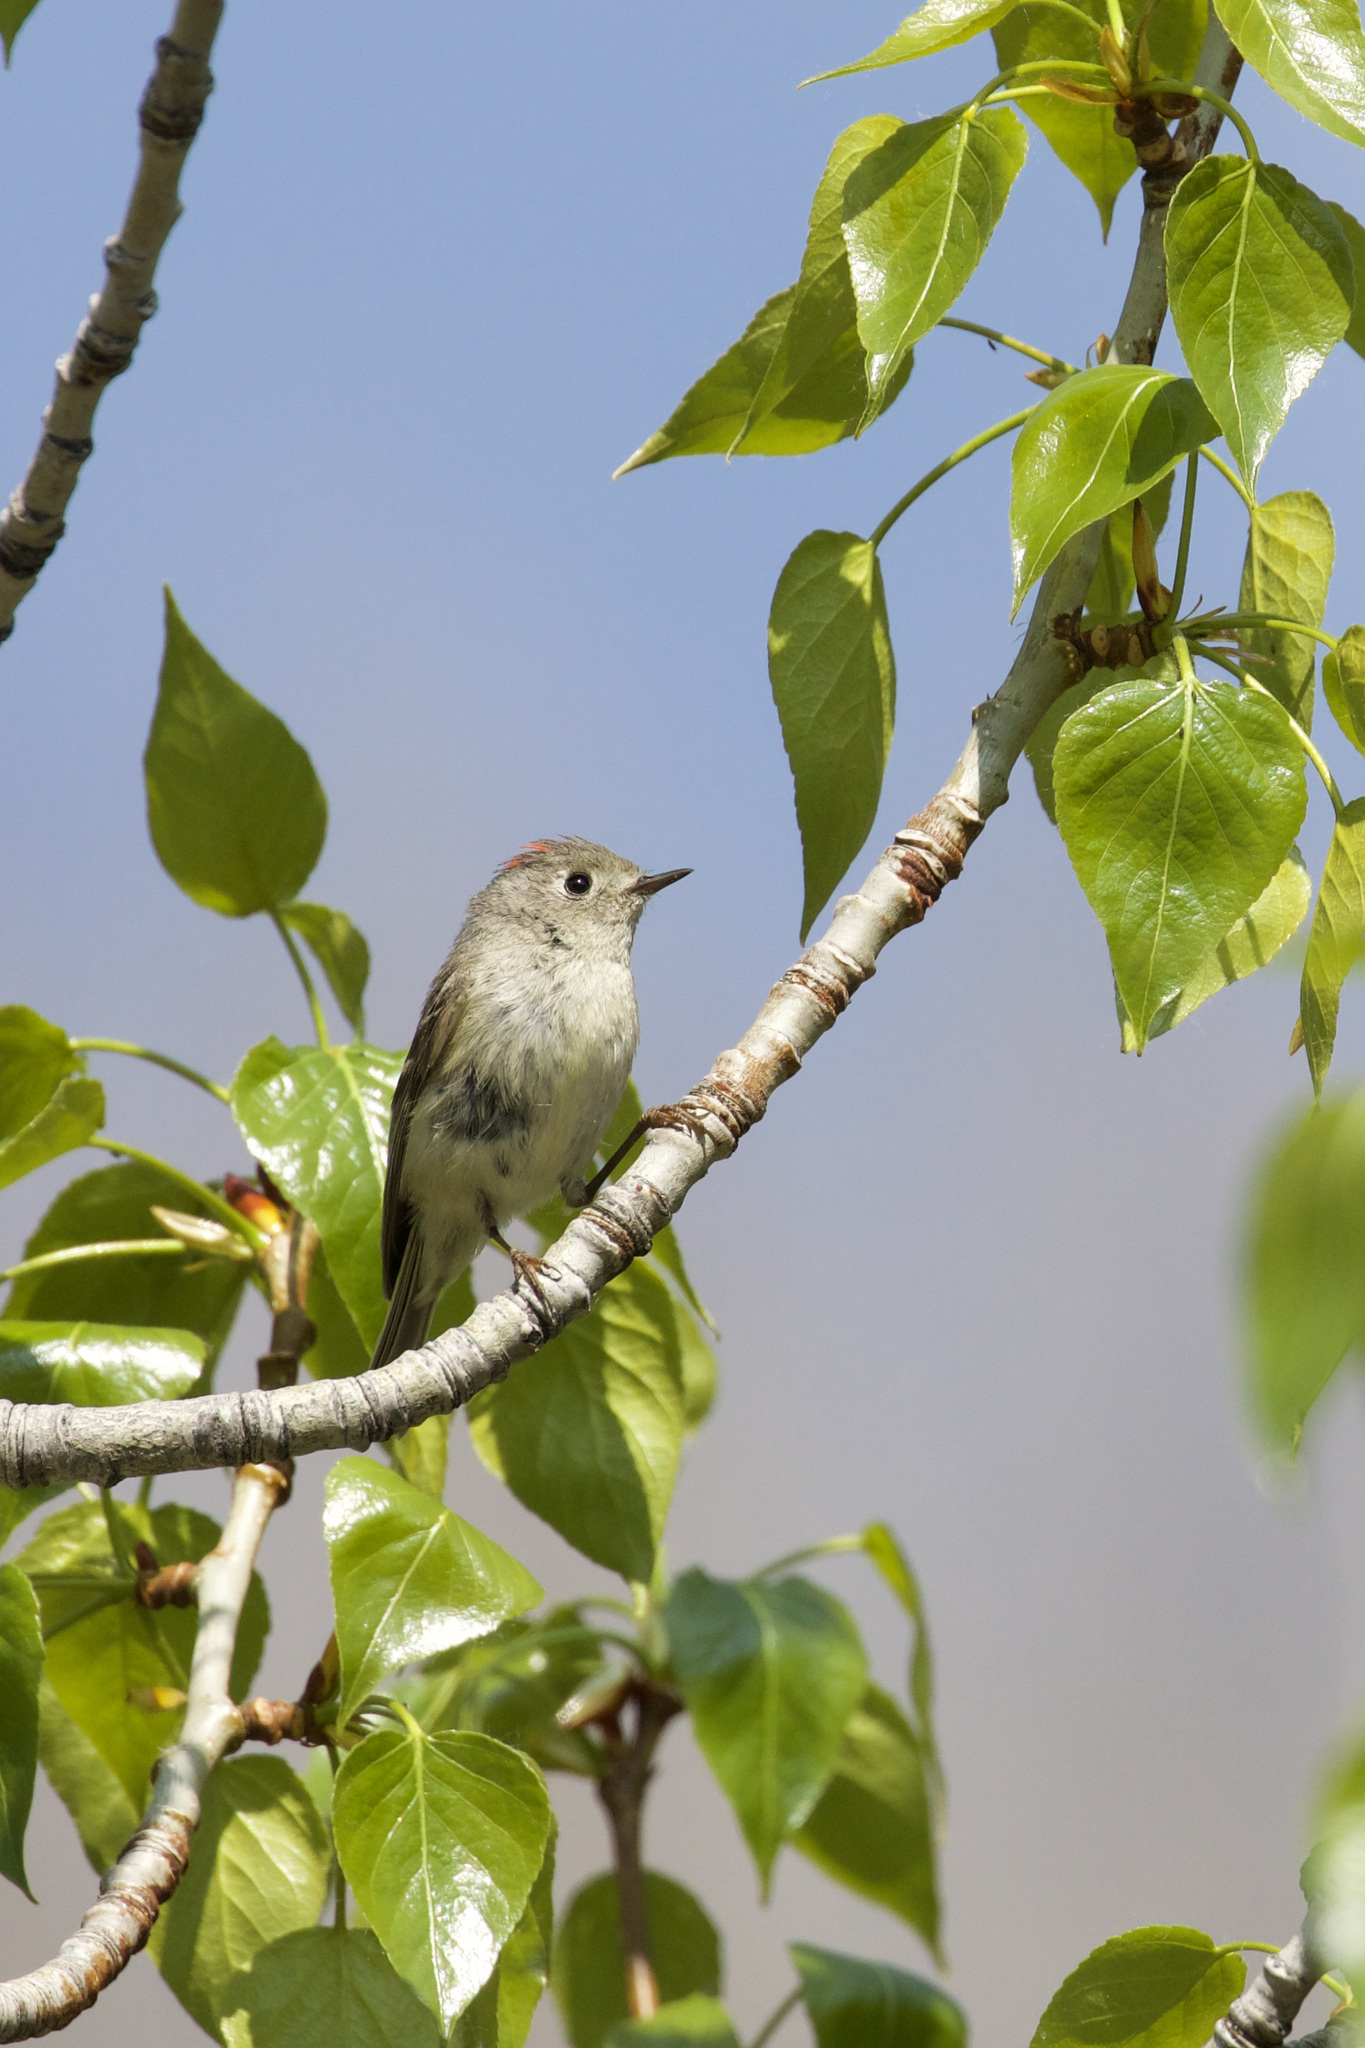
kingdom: Animalia
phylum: Chordata
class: Aves
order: Passeriformes
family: Regulidae
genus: Regulus
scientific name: Regulus calendula
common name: Ruby-crowned kinglet
